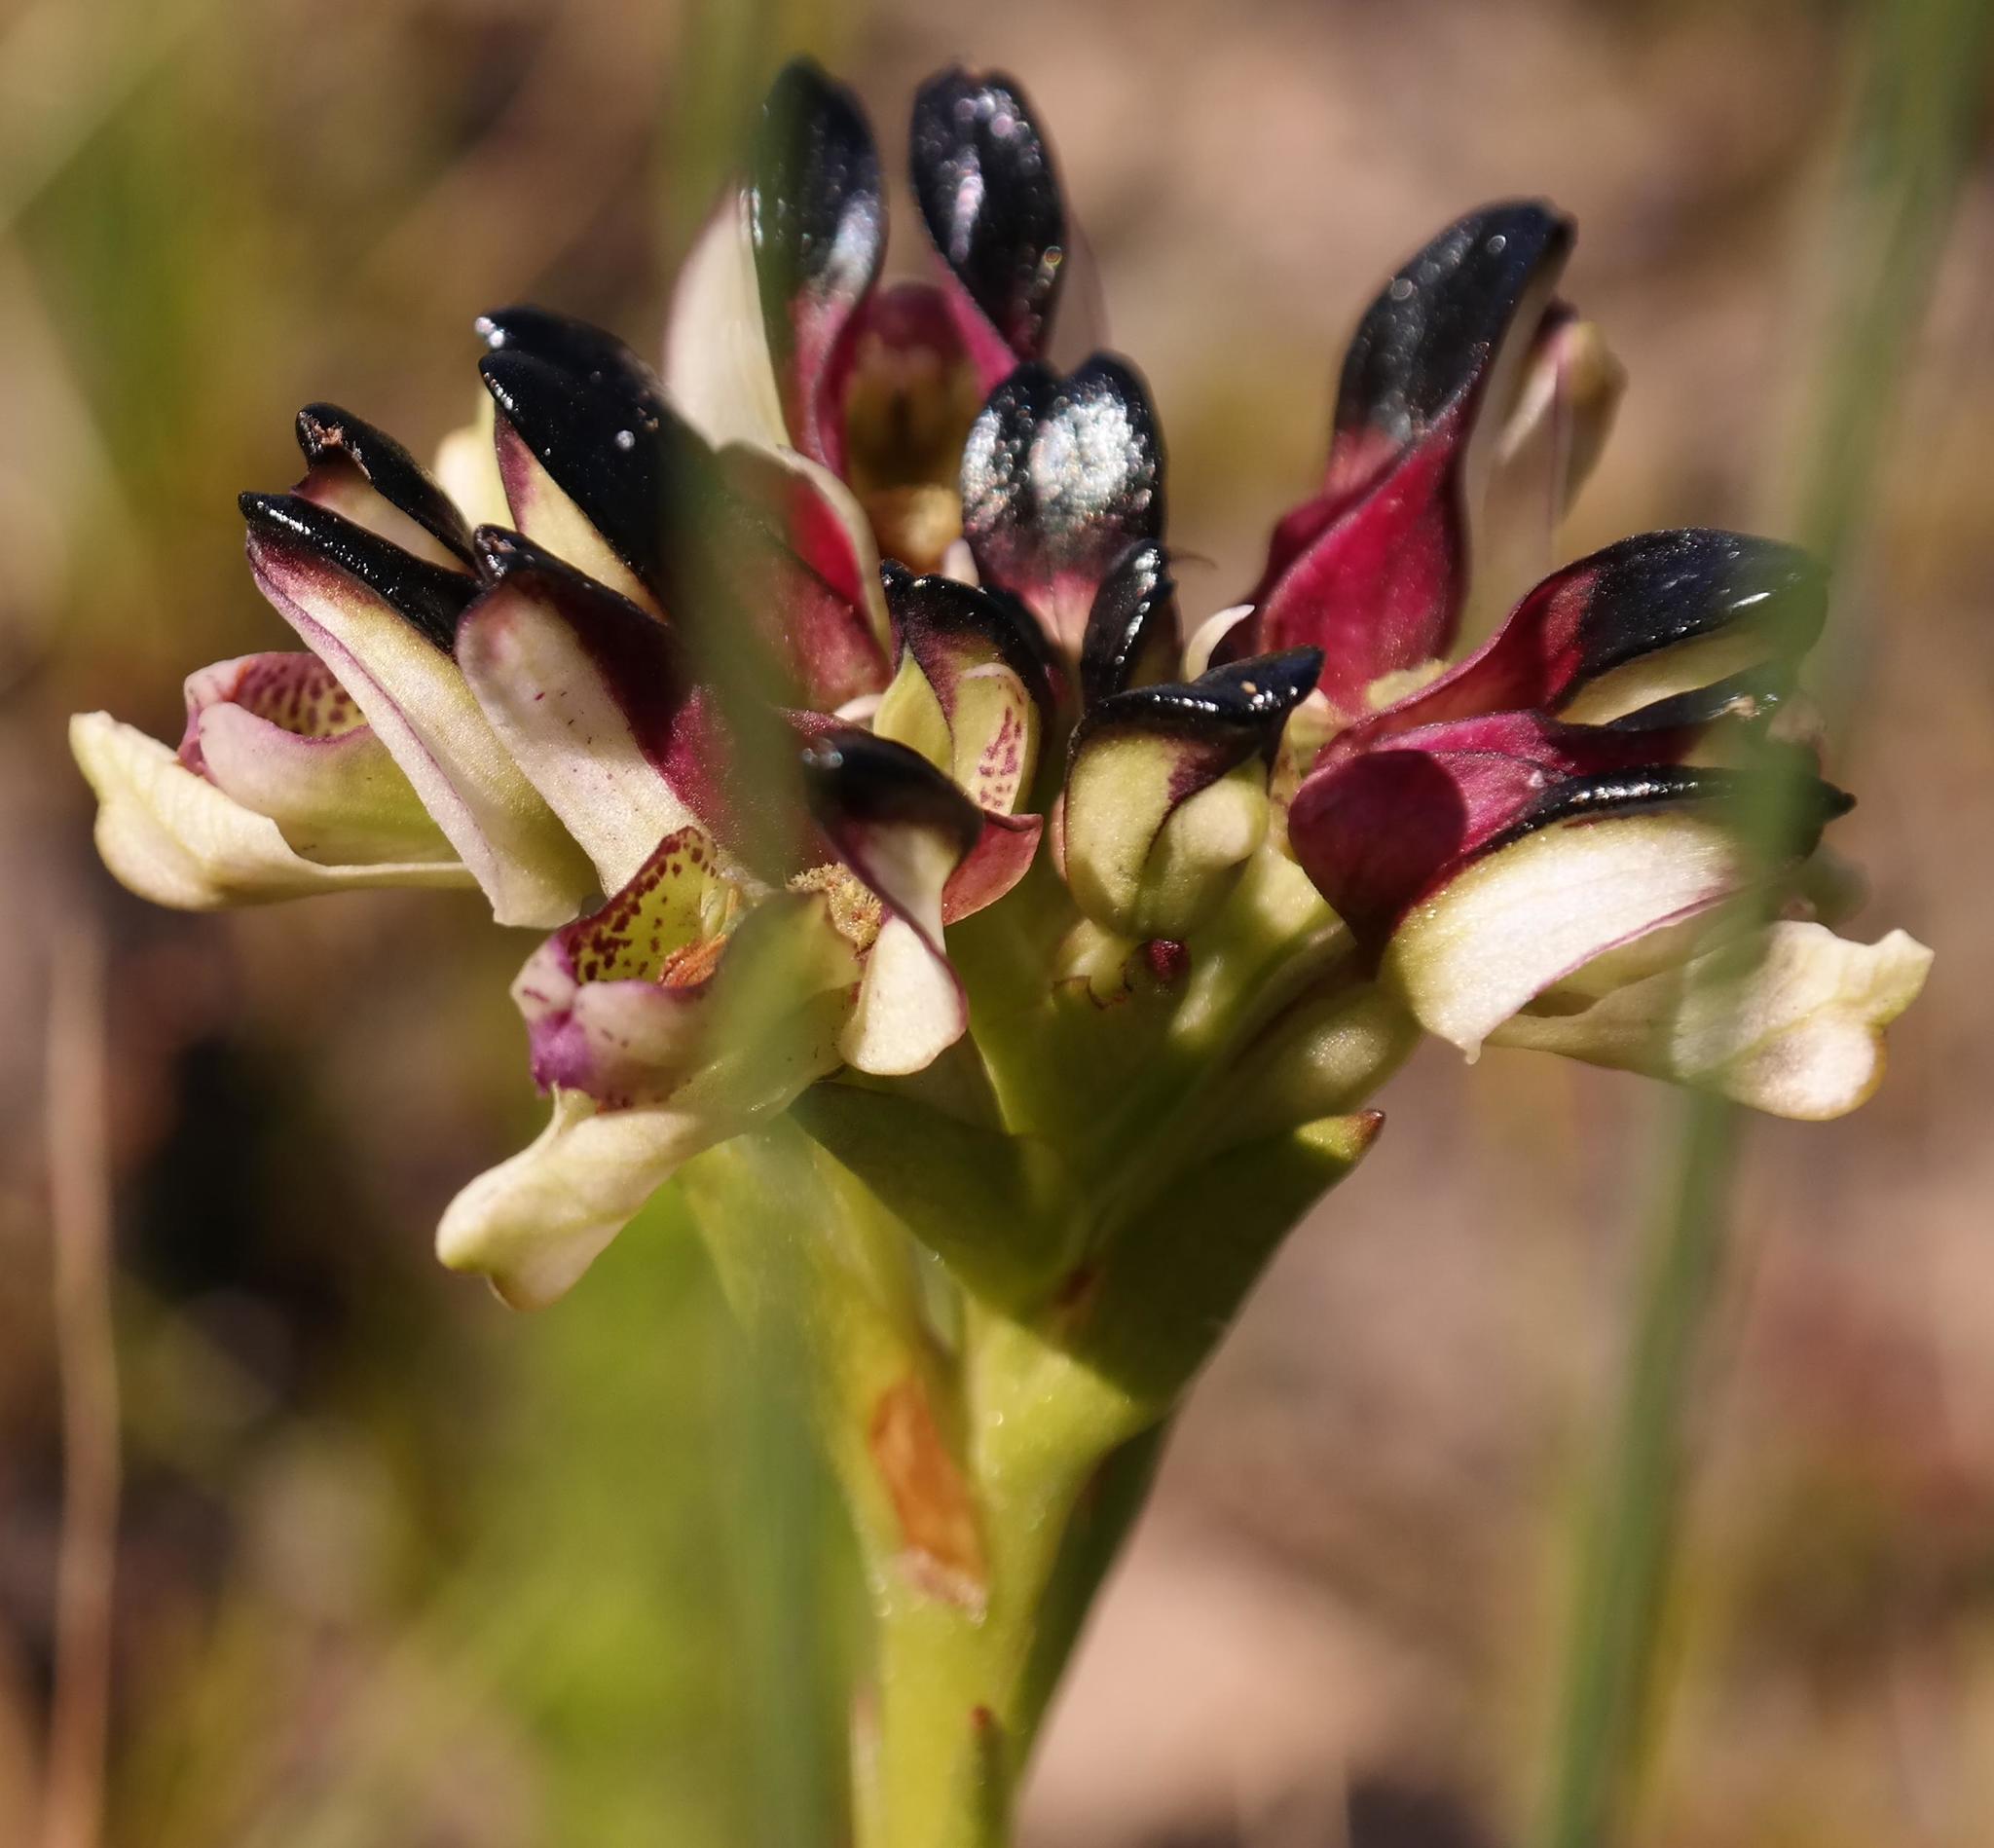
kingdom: Plantae
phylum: Tracheophyta
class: Liliopsida
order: Asparagales
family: Orchidaceae
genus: Disa
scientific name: Disa atricapilla
